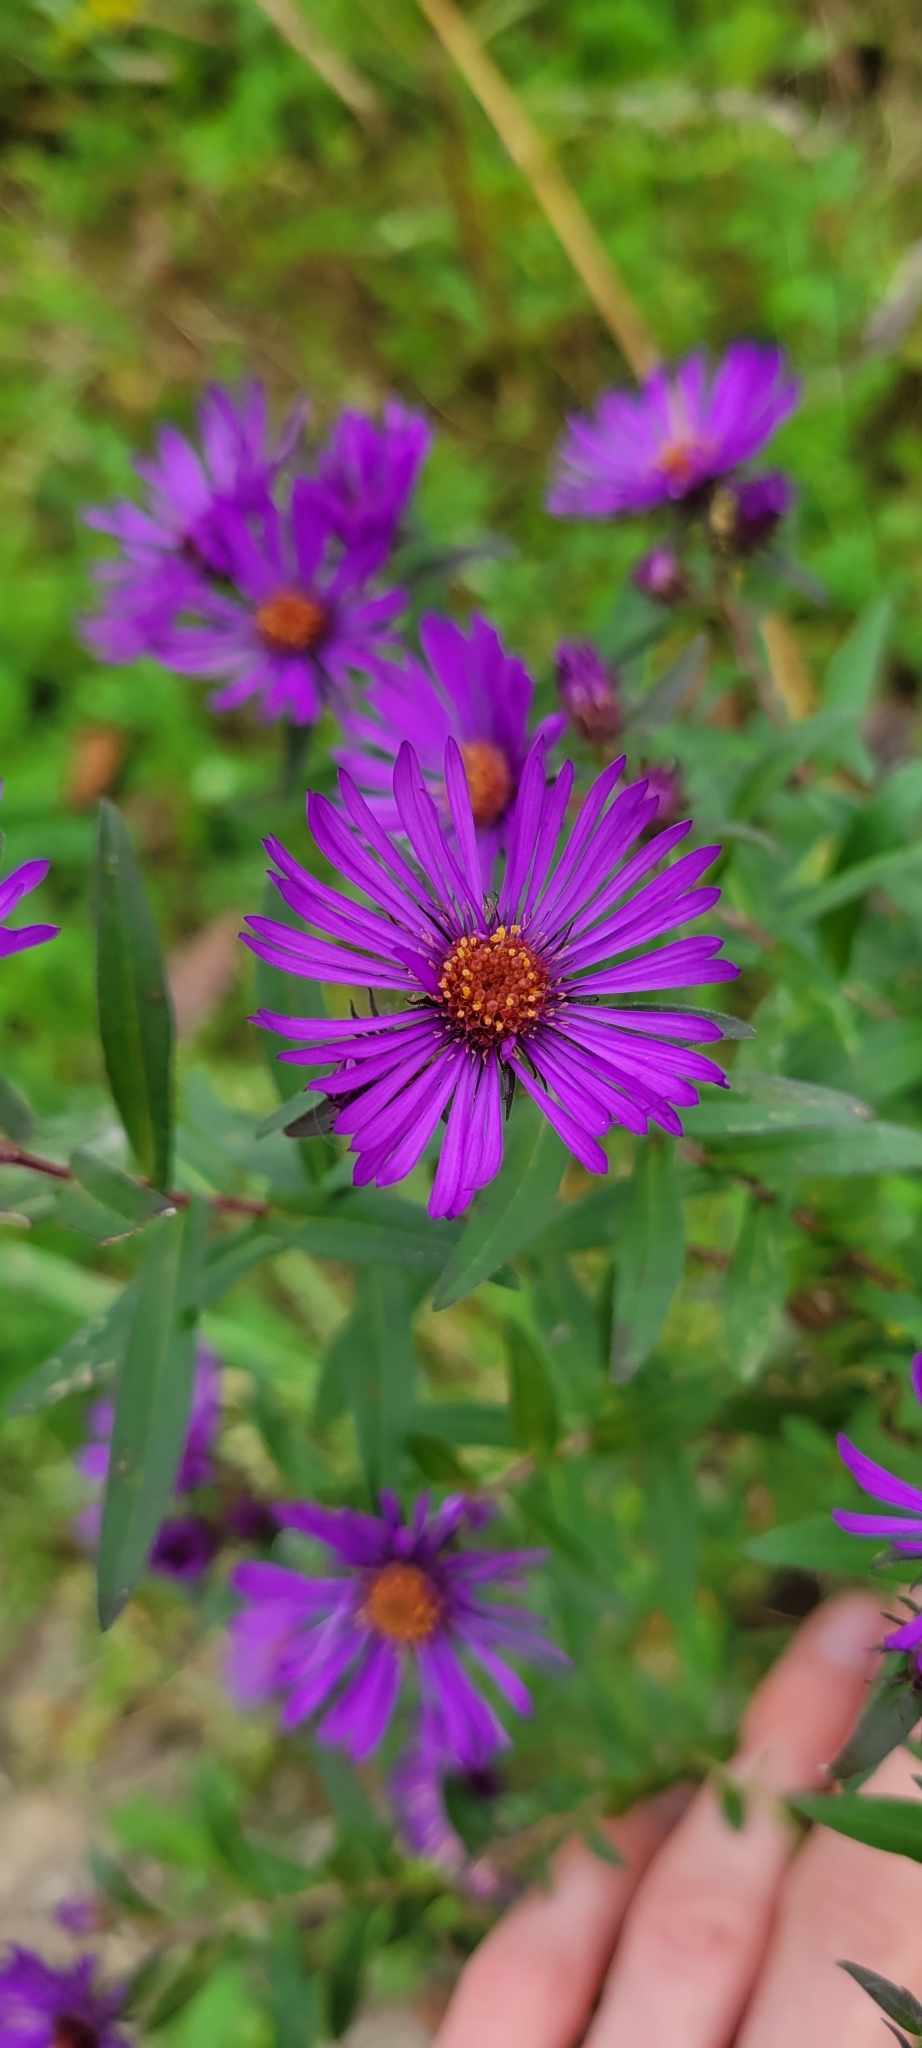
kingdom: Plantae
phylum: Tracheophyta
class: Magnoliopsida
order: Asterales
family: Asteraceae
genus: Symphyotrichum
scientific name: Symphyotrichum novae-angliae
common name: Michaelmas daisy
